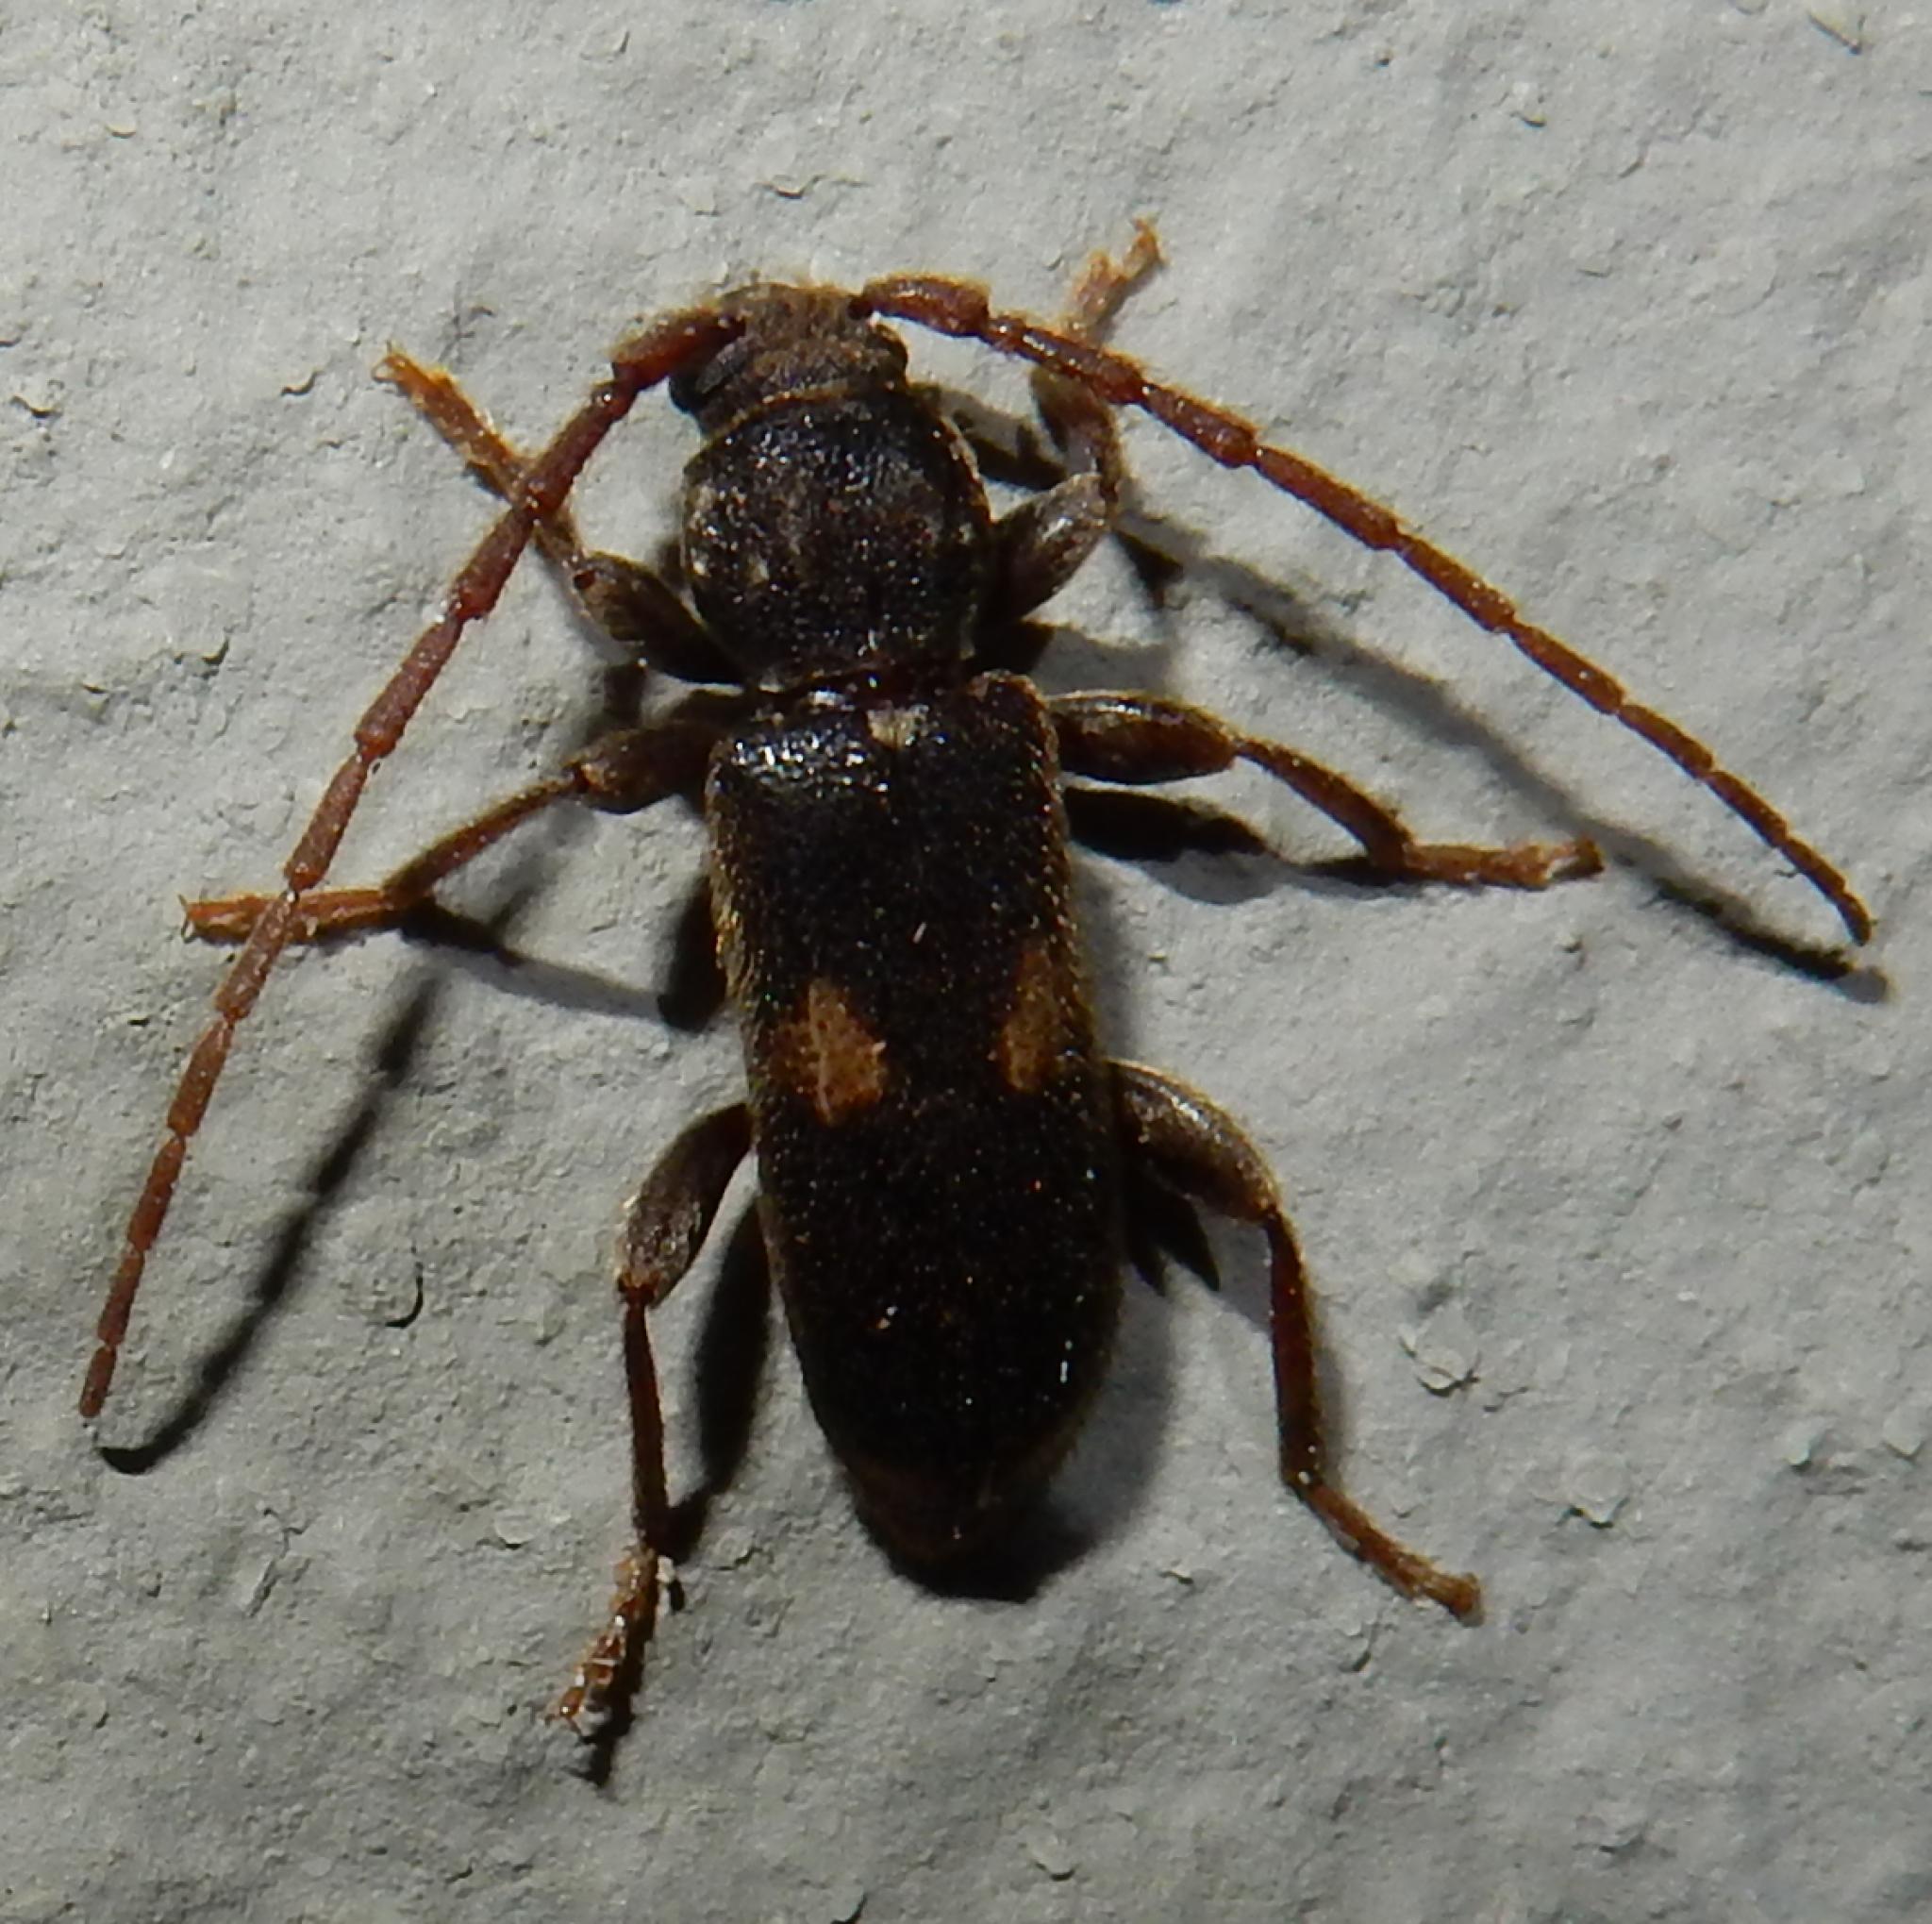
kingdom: Animalia
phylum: Arthropoda
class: Insecta
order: Coleoptera
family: Cerambycidae
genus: Zamium
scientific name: Zamium bimaculatum
